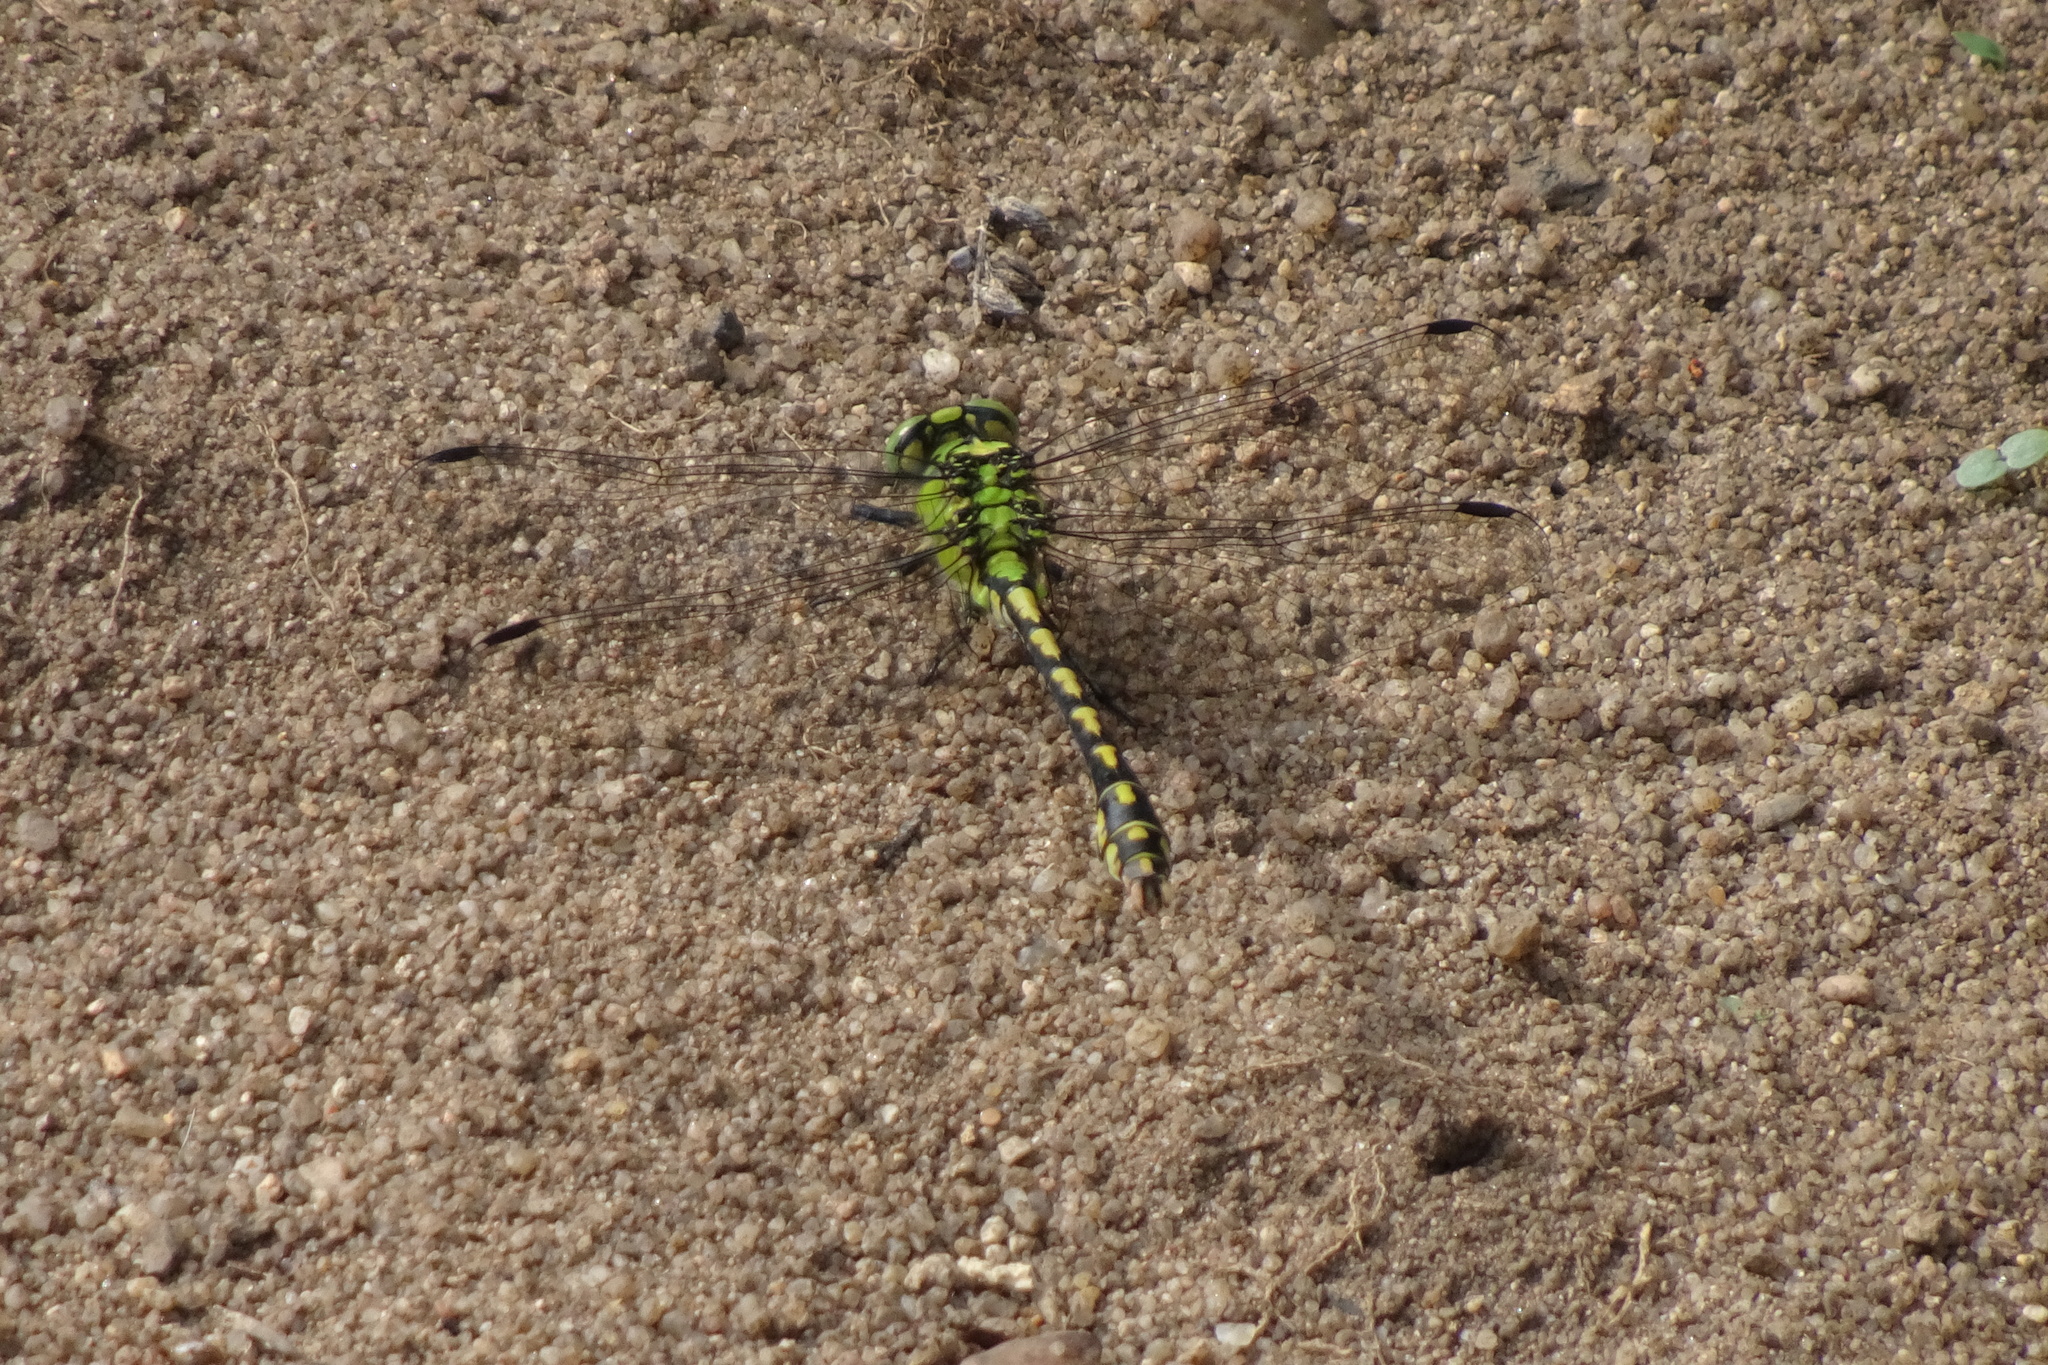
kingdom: Animalia
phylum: Arthropoda
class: Insecta
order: Odonata
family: Gomphidae
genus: Ophiogomphus
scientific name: Ophiogomphus cecilia
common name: Green snaketail
